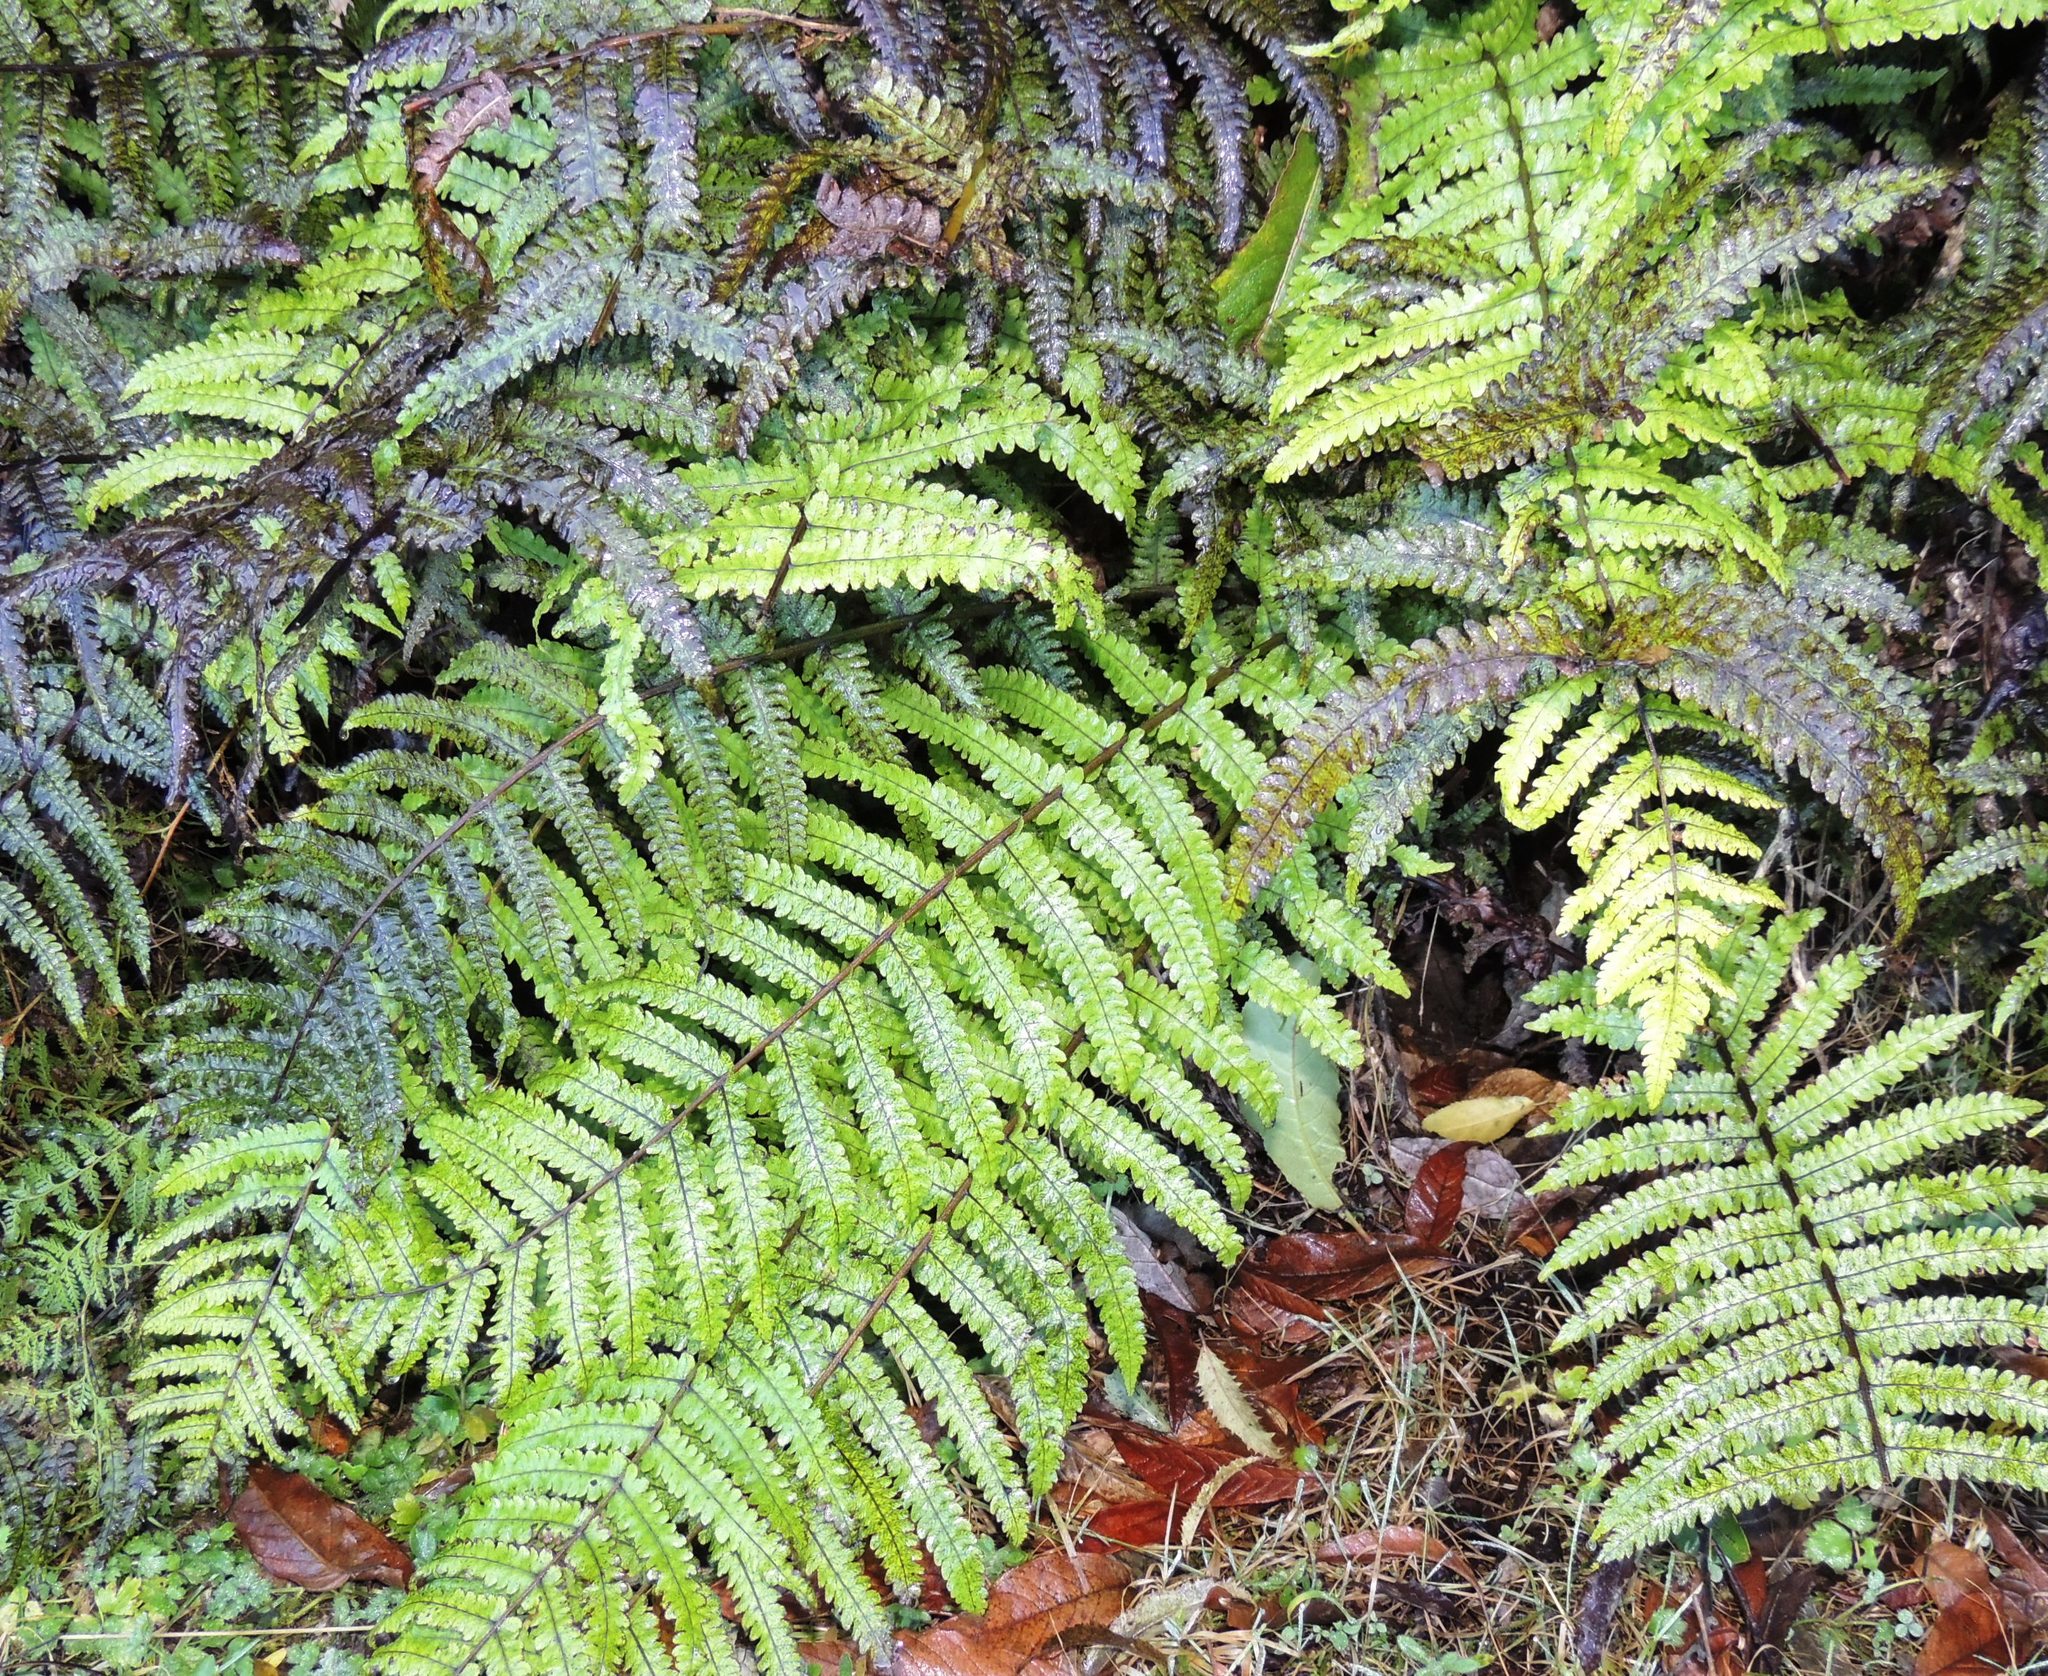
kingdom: Plantae
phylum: Tracheophyta
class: Polypodiopsida
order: Polypodiales
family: Thelypteridaceae
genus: Pakau
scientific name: Pakau pennigera
